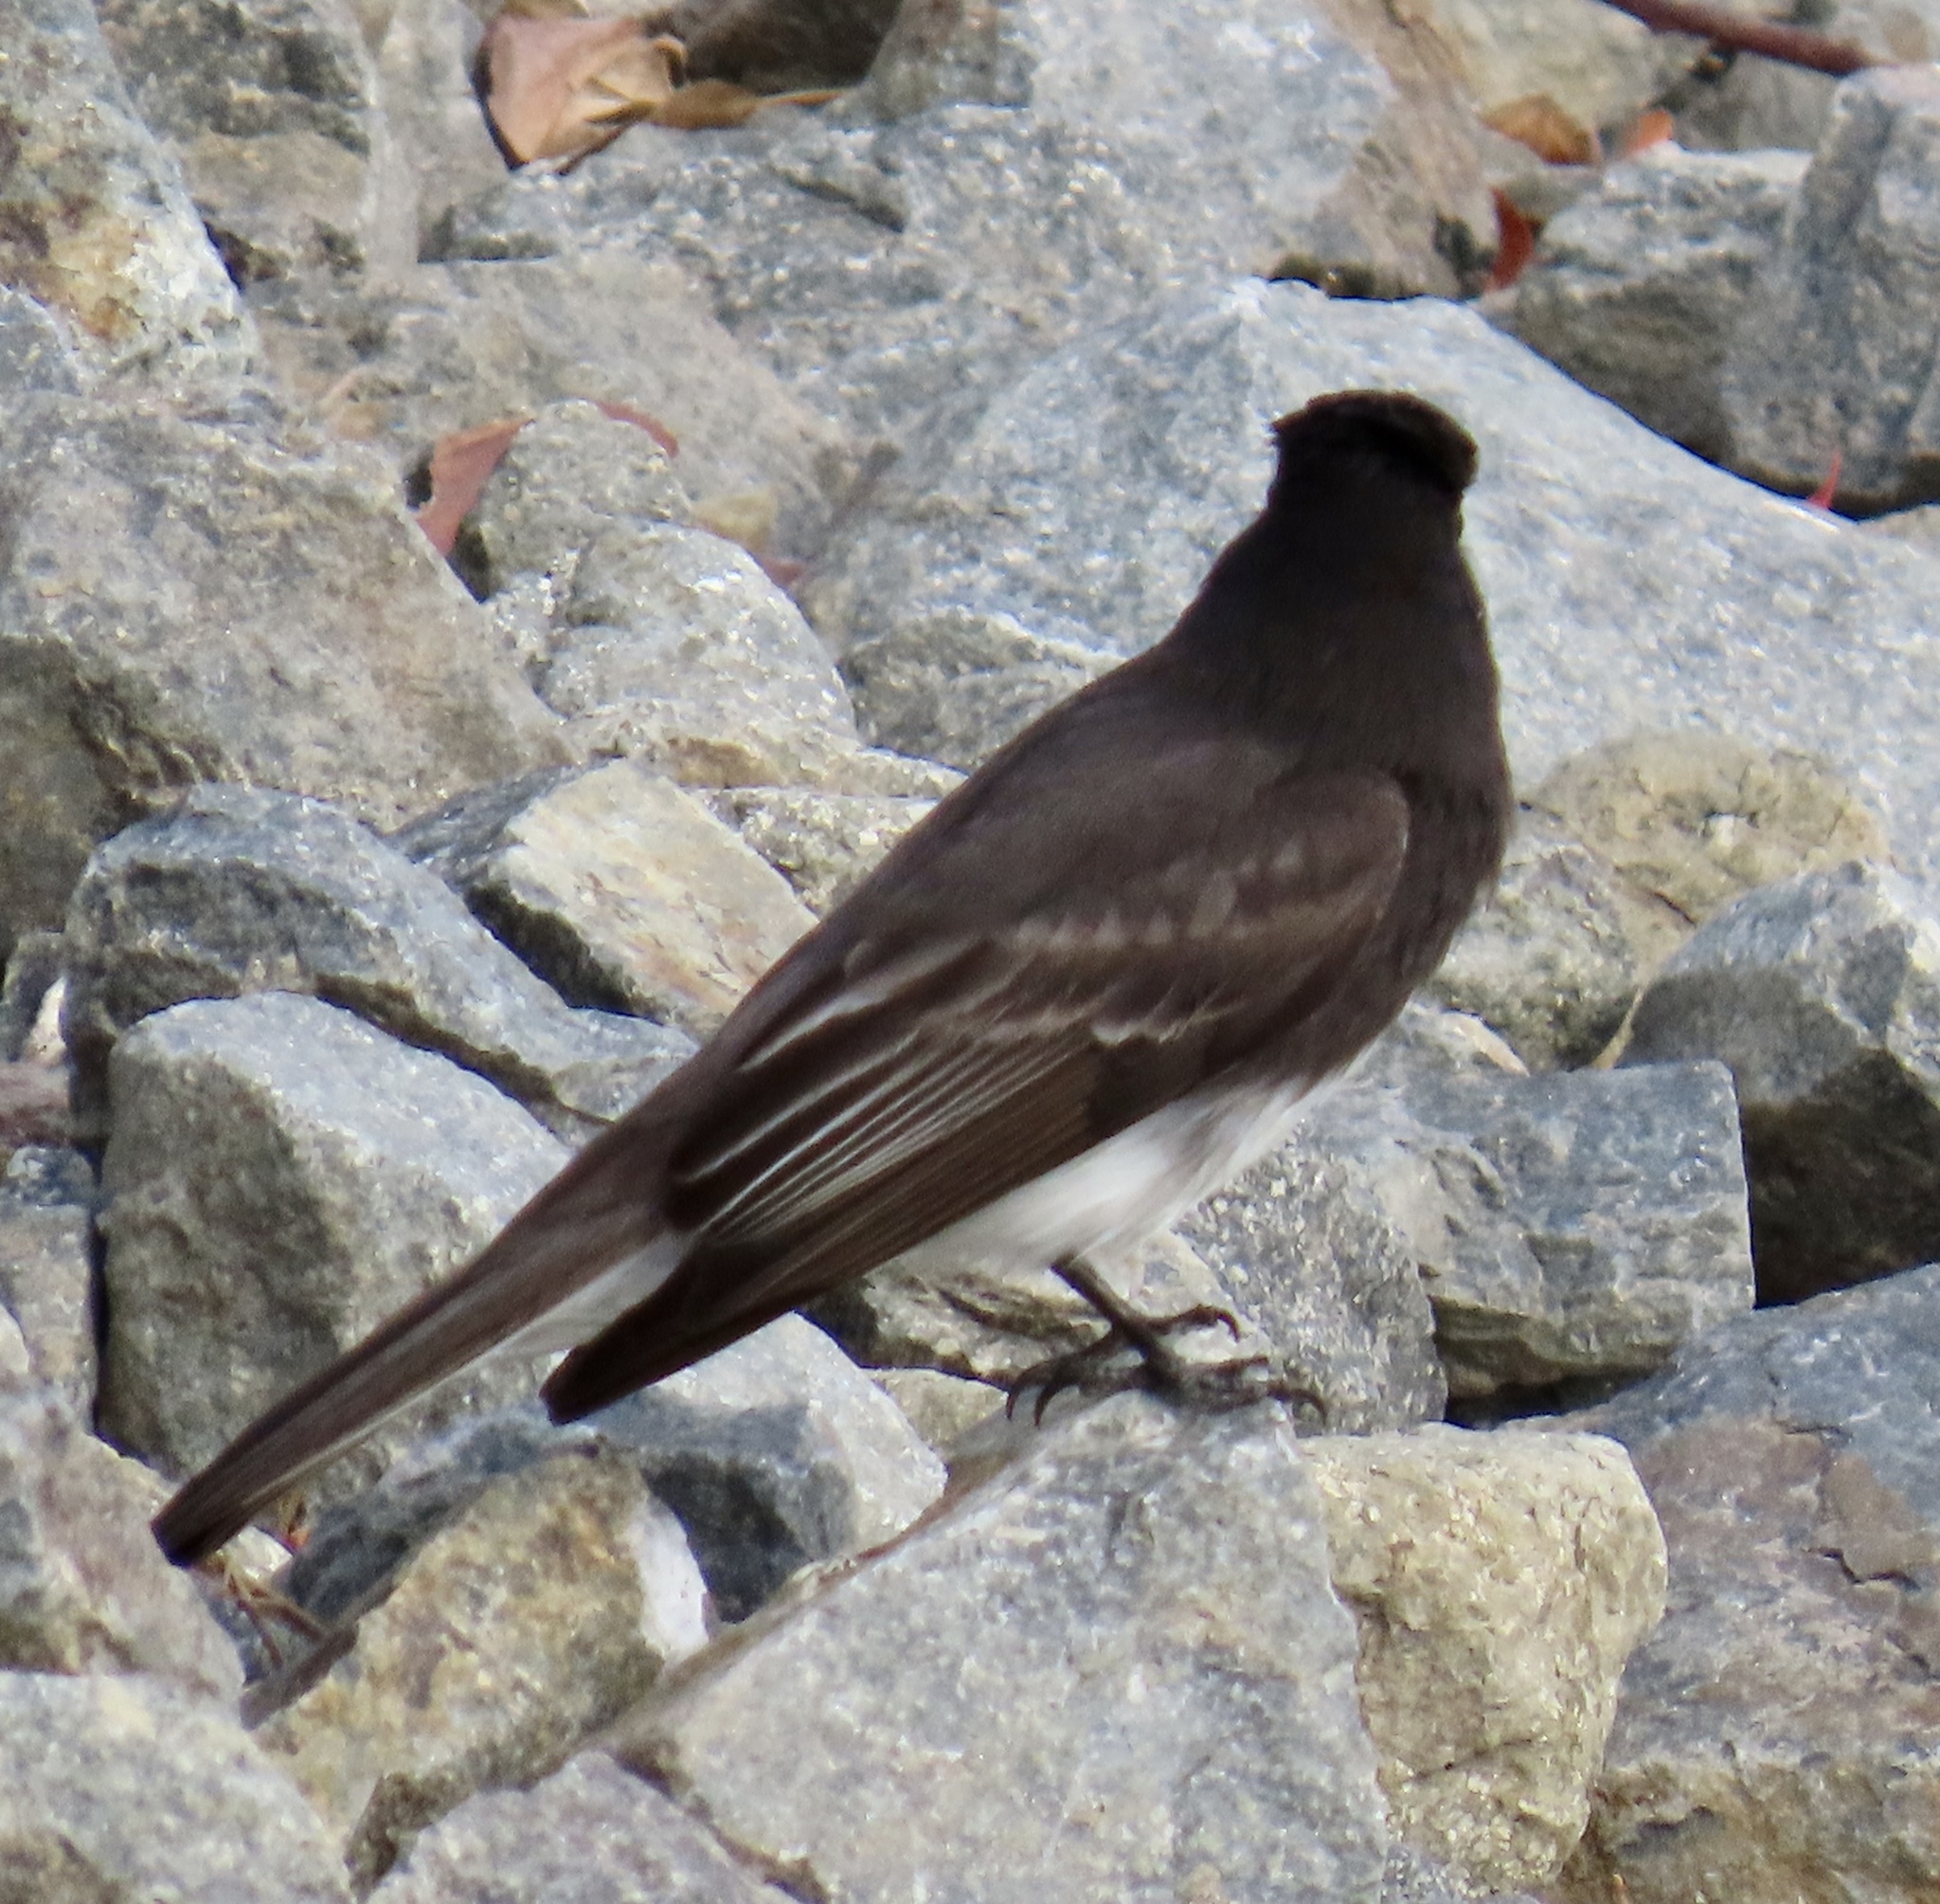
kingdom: Animalia
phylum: Chordata
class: Aves
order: Passeriformes
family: Tyrannidae
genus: Sayornis
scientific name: Sayornis nigricans
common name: Black phoebe
